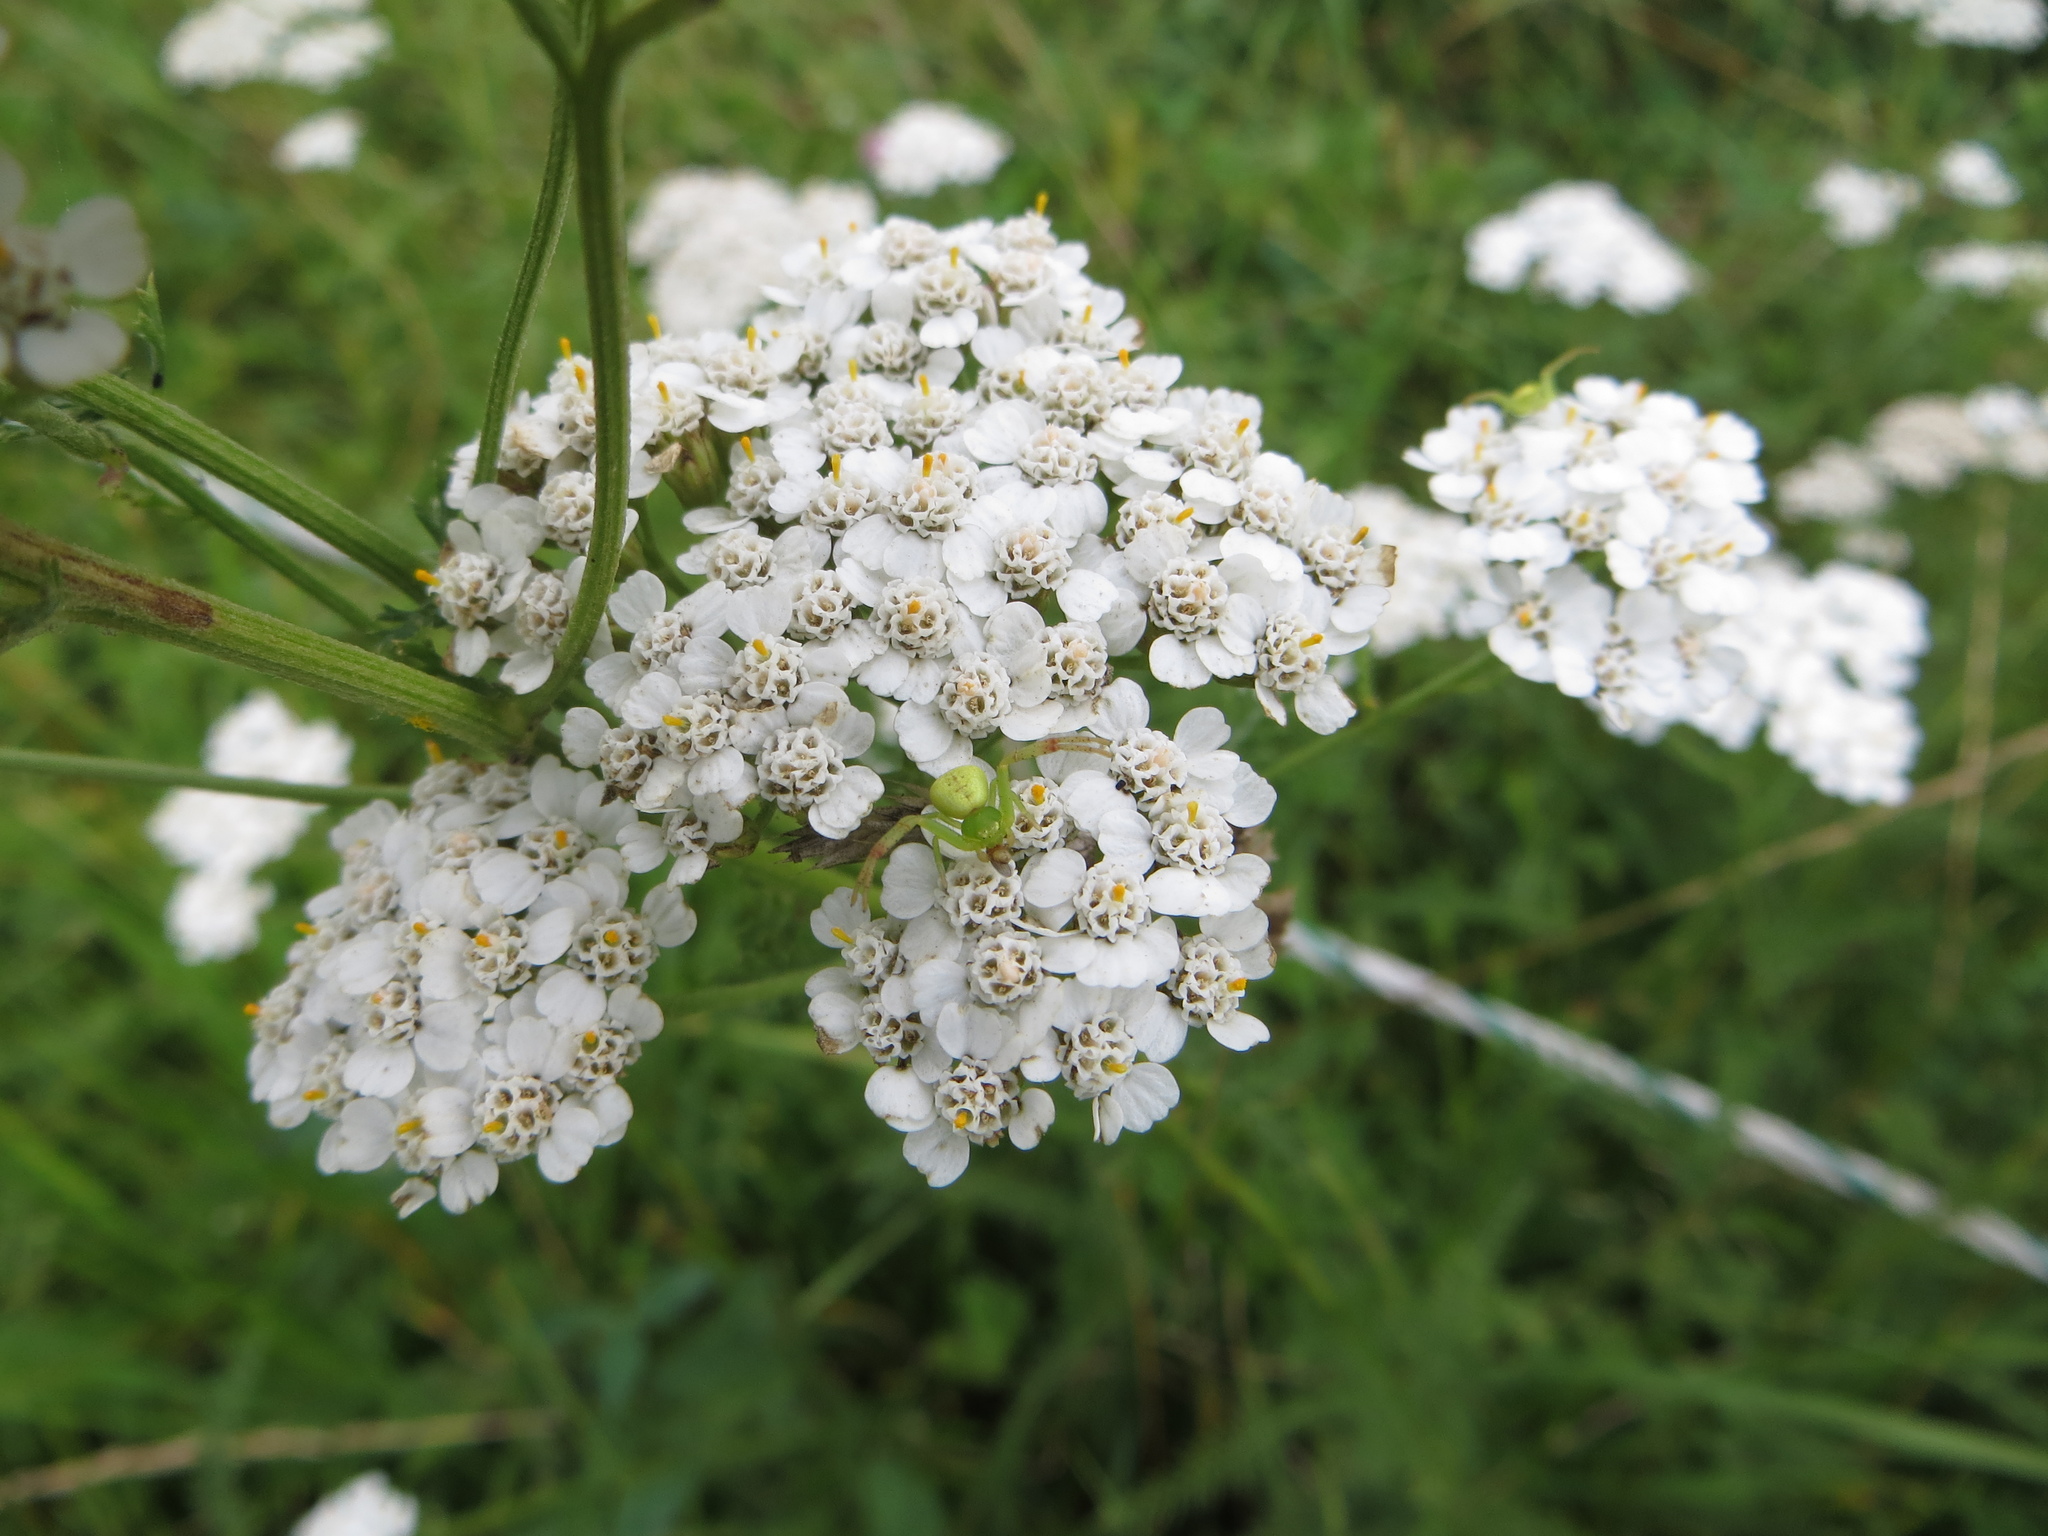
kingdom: Animalia
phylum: Arthropoda
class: Arachnida
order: Araneae
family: Thomisidae
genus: Ebrechtella
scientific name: Ebrechtella tricuspidata
